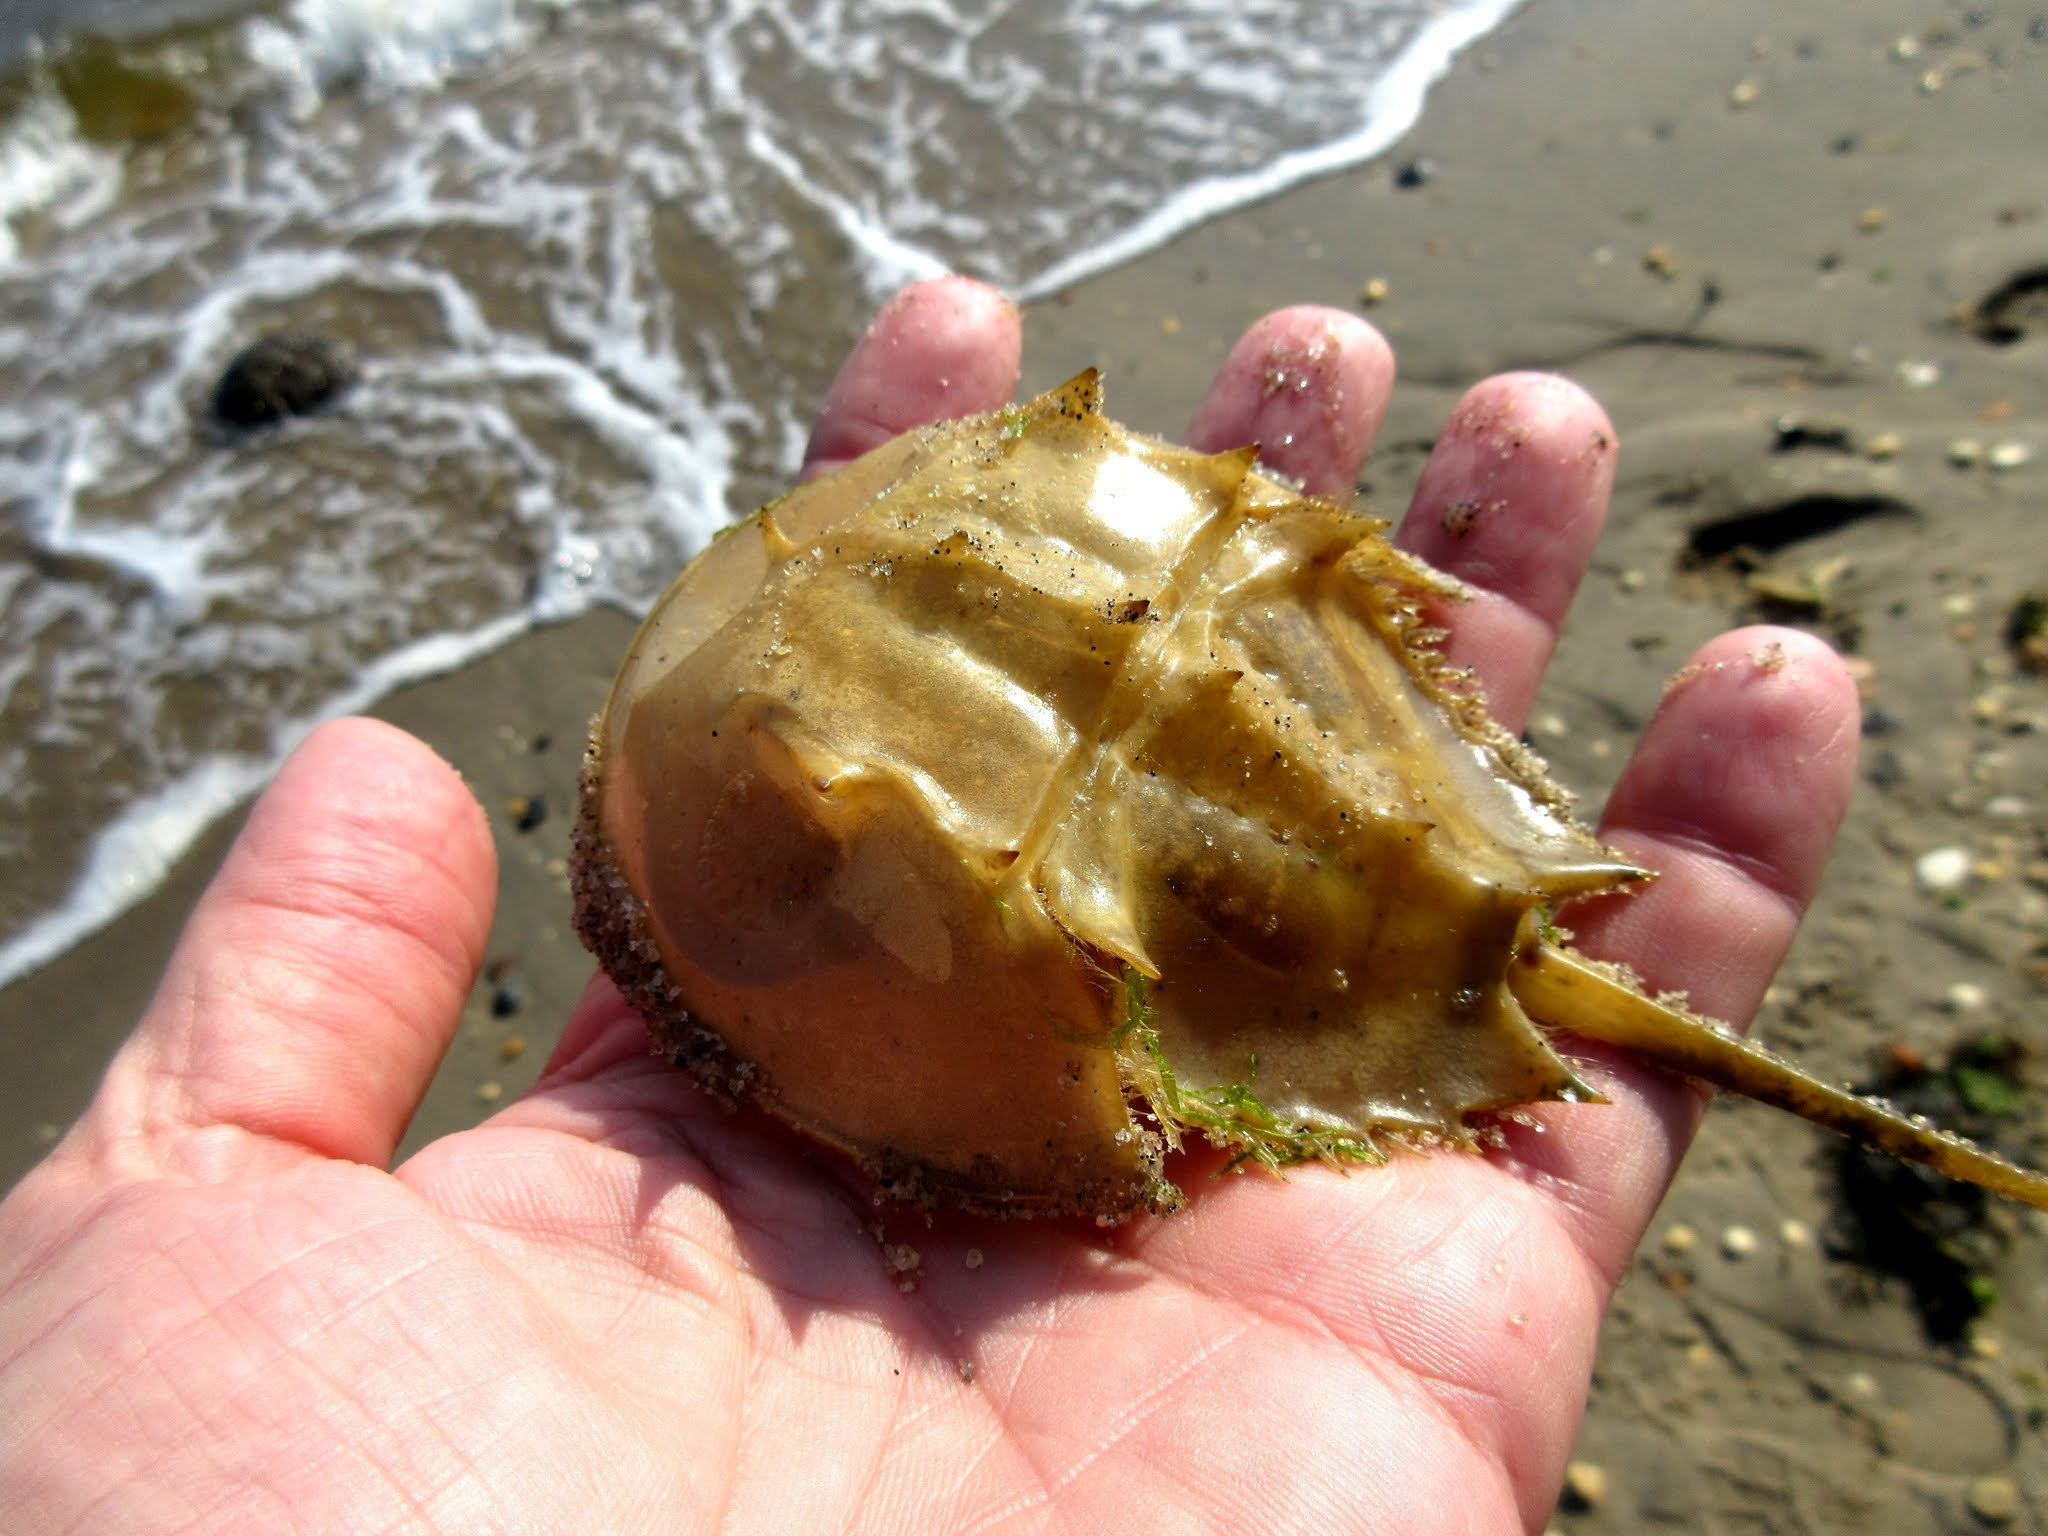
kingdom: Animalia
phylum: Arthropoda
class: Merostomata
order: Xiphosurida
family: Limulidae
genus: Limulus
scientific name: Limulus polyphemus
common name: Horseshoe crab
